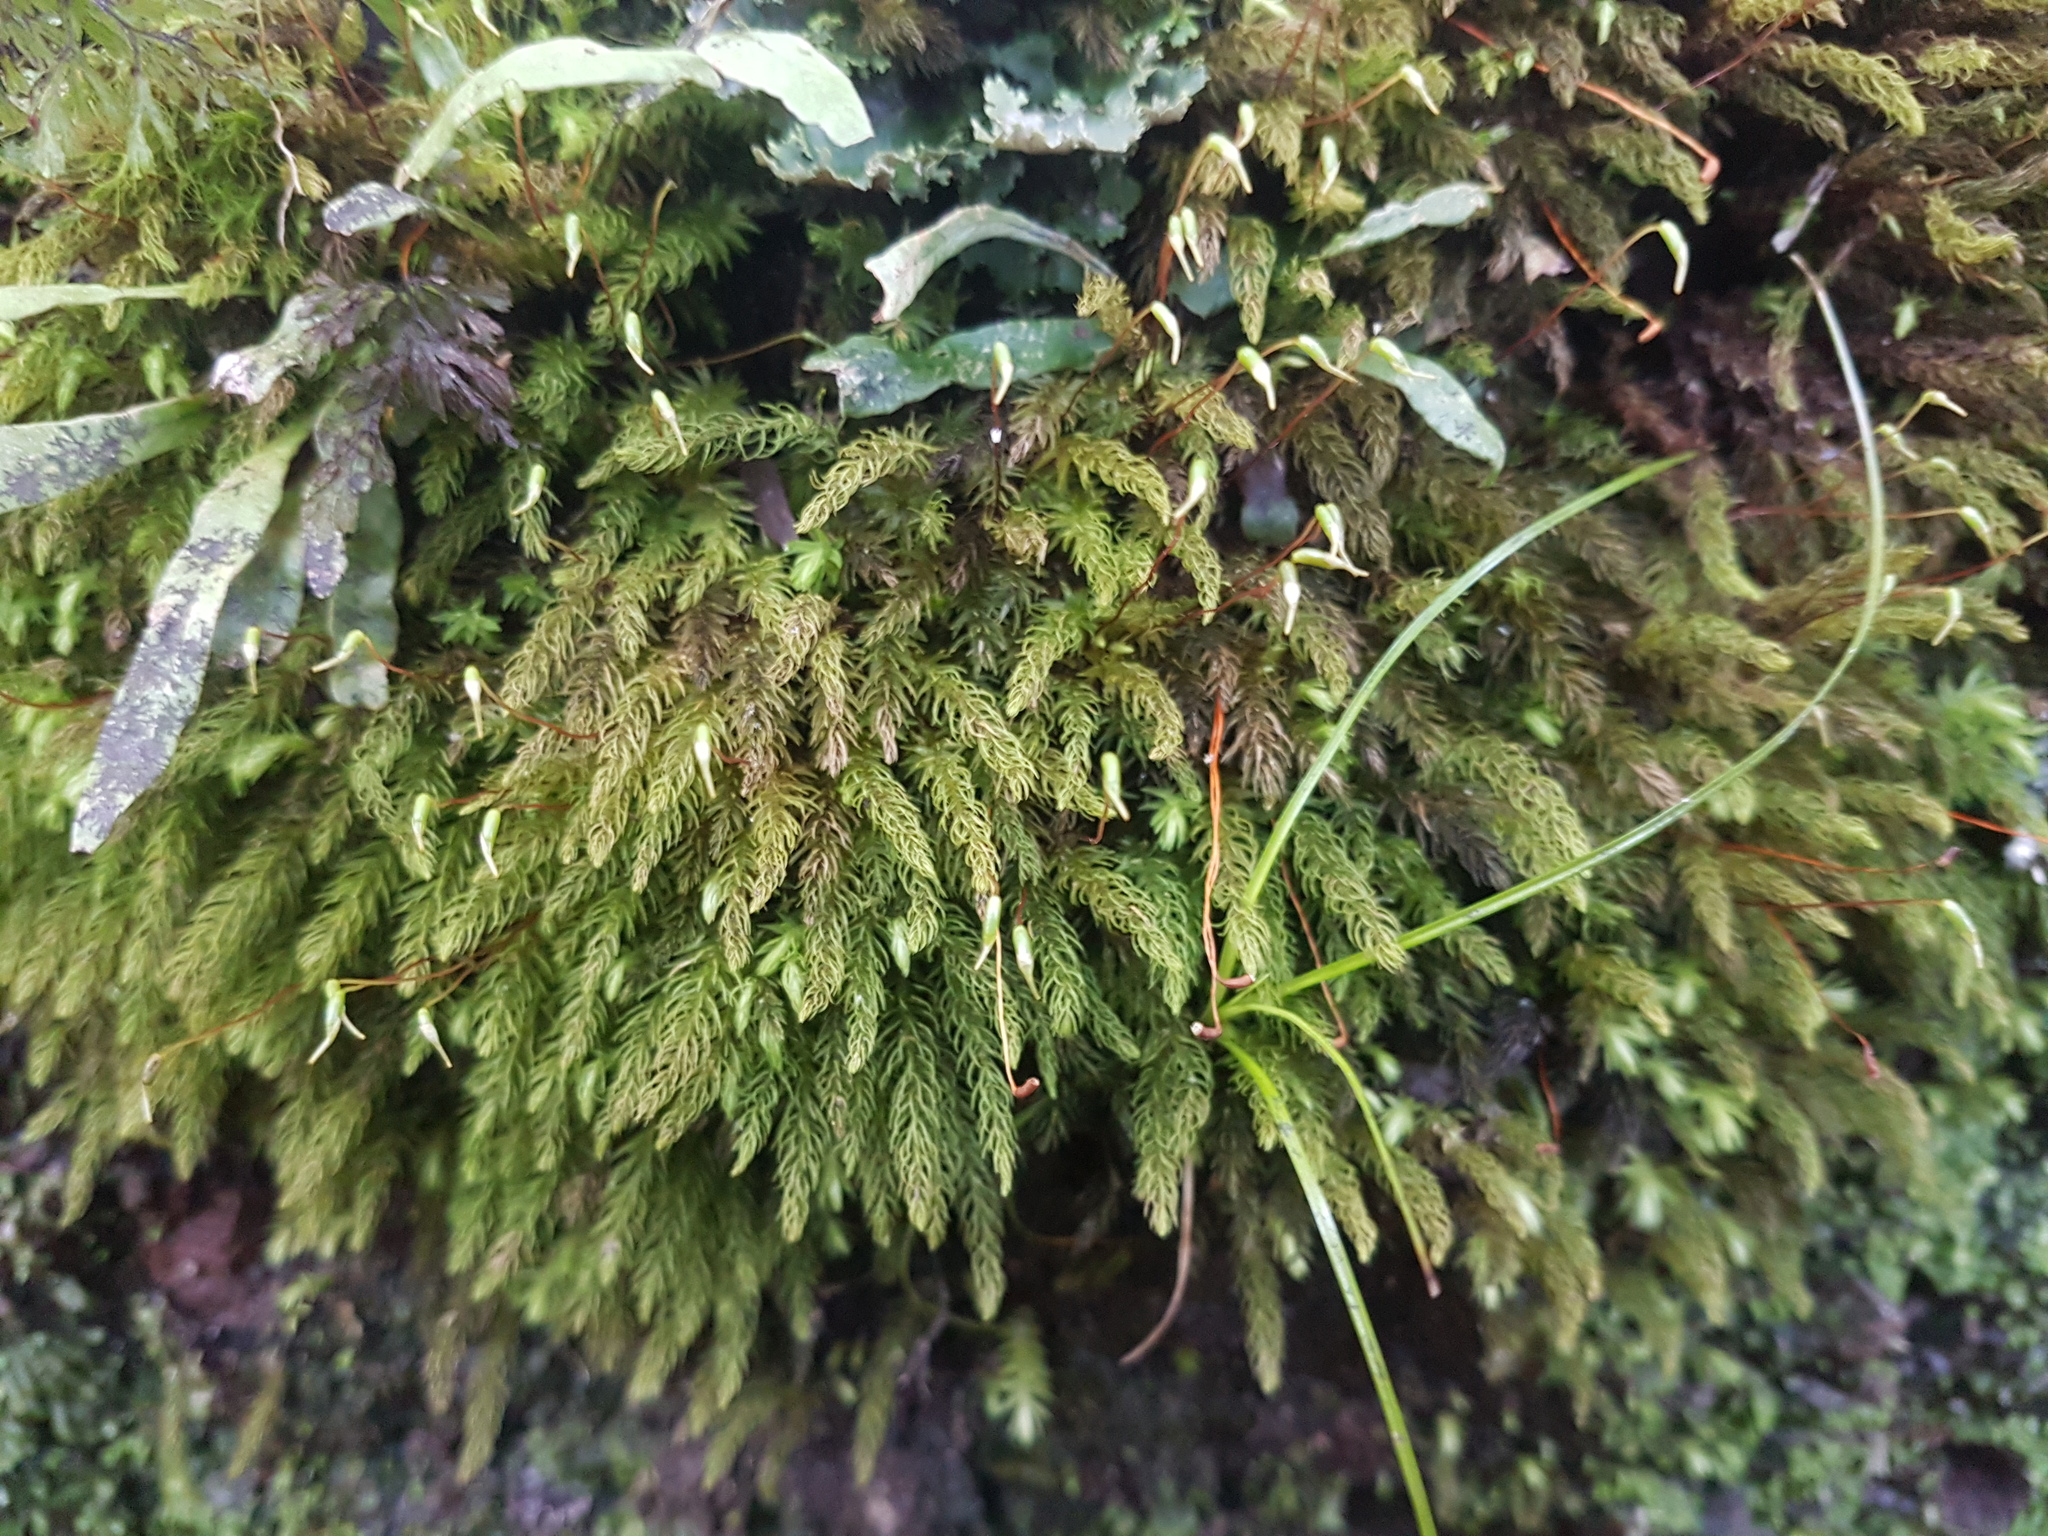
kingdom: Plantae
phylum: Bryophyta
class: Bryopsida
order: Aulacomniales
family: Aulacomniaceae
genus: Hymenodontopsis
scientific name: Hymenodontopsis mnioides
